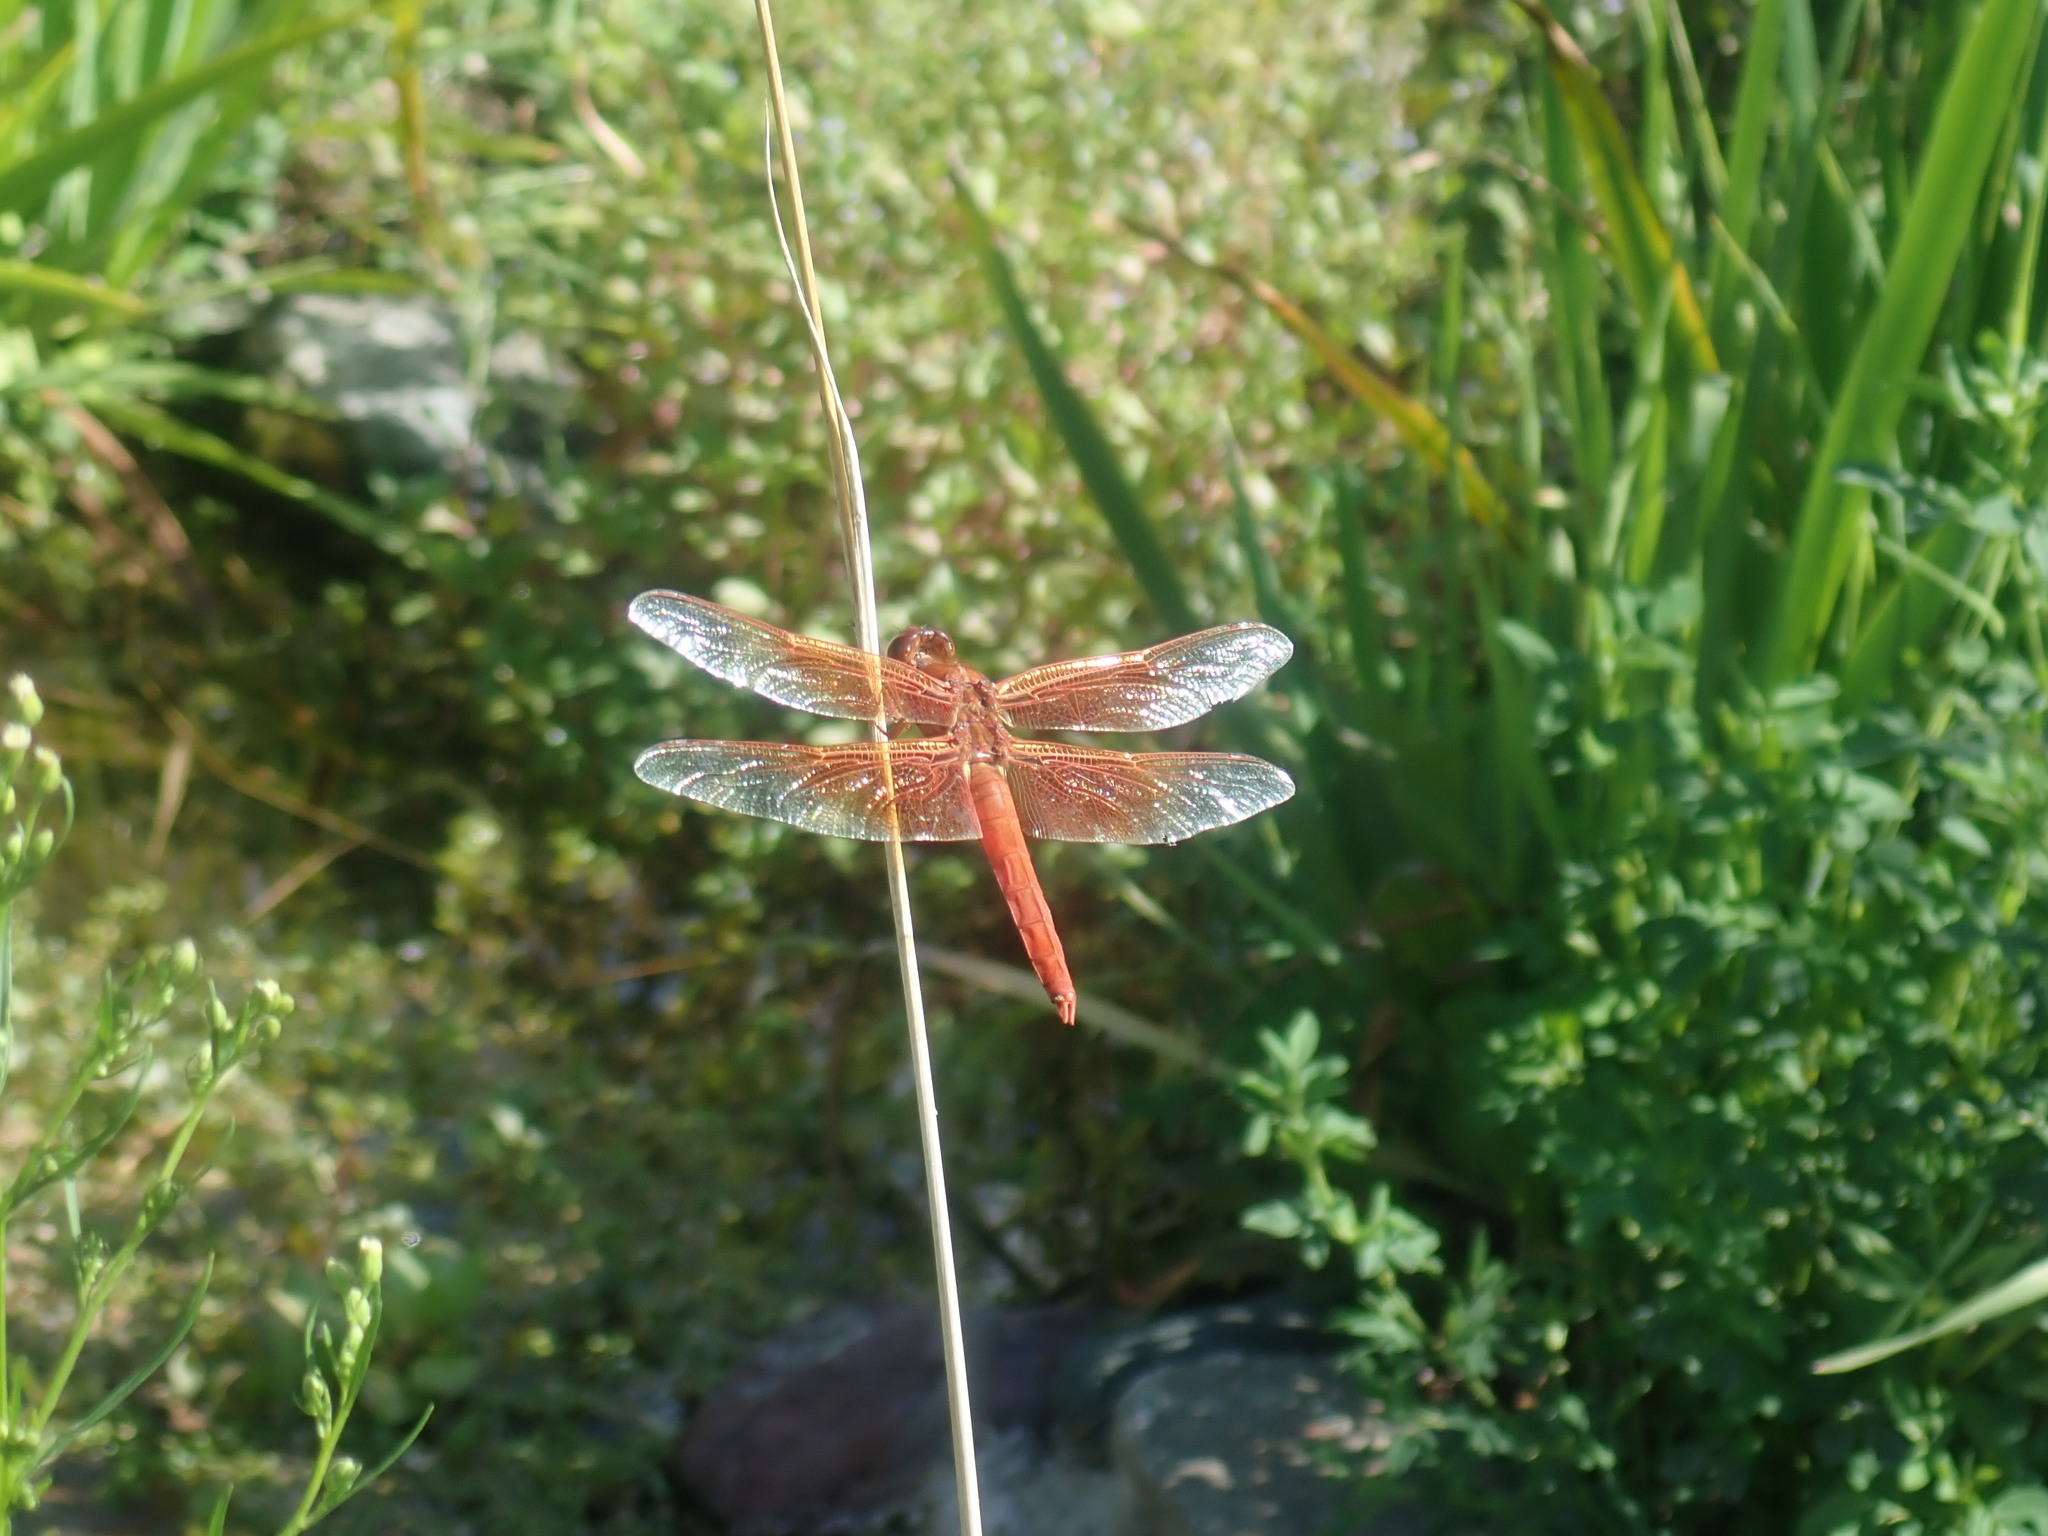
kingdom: Animalia
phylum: Arthropoda
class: Insecta
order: Odonata
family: Libellulidae
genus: Libellula
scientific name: Libellula saturata
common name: Flame skimmer
